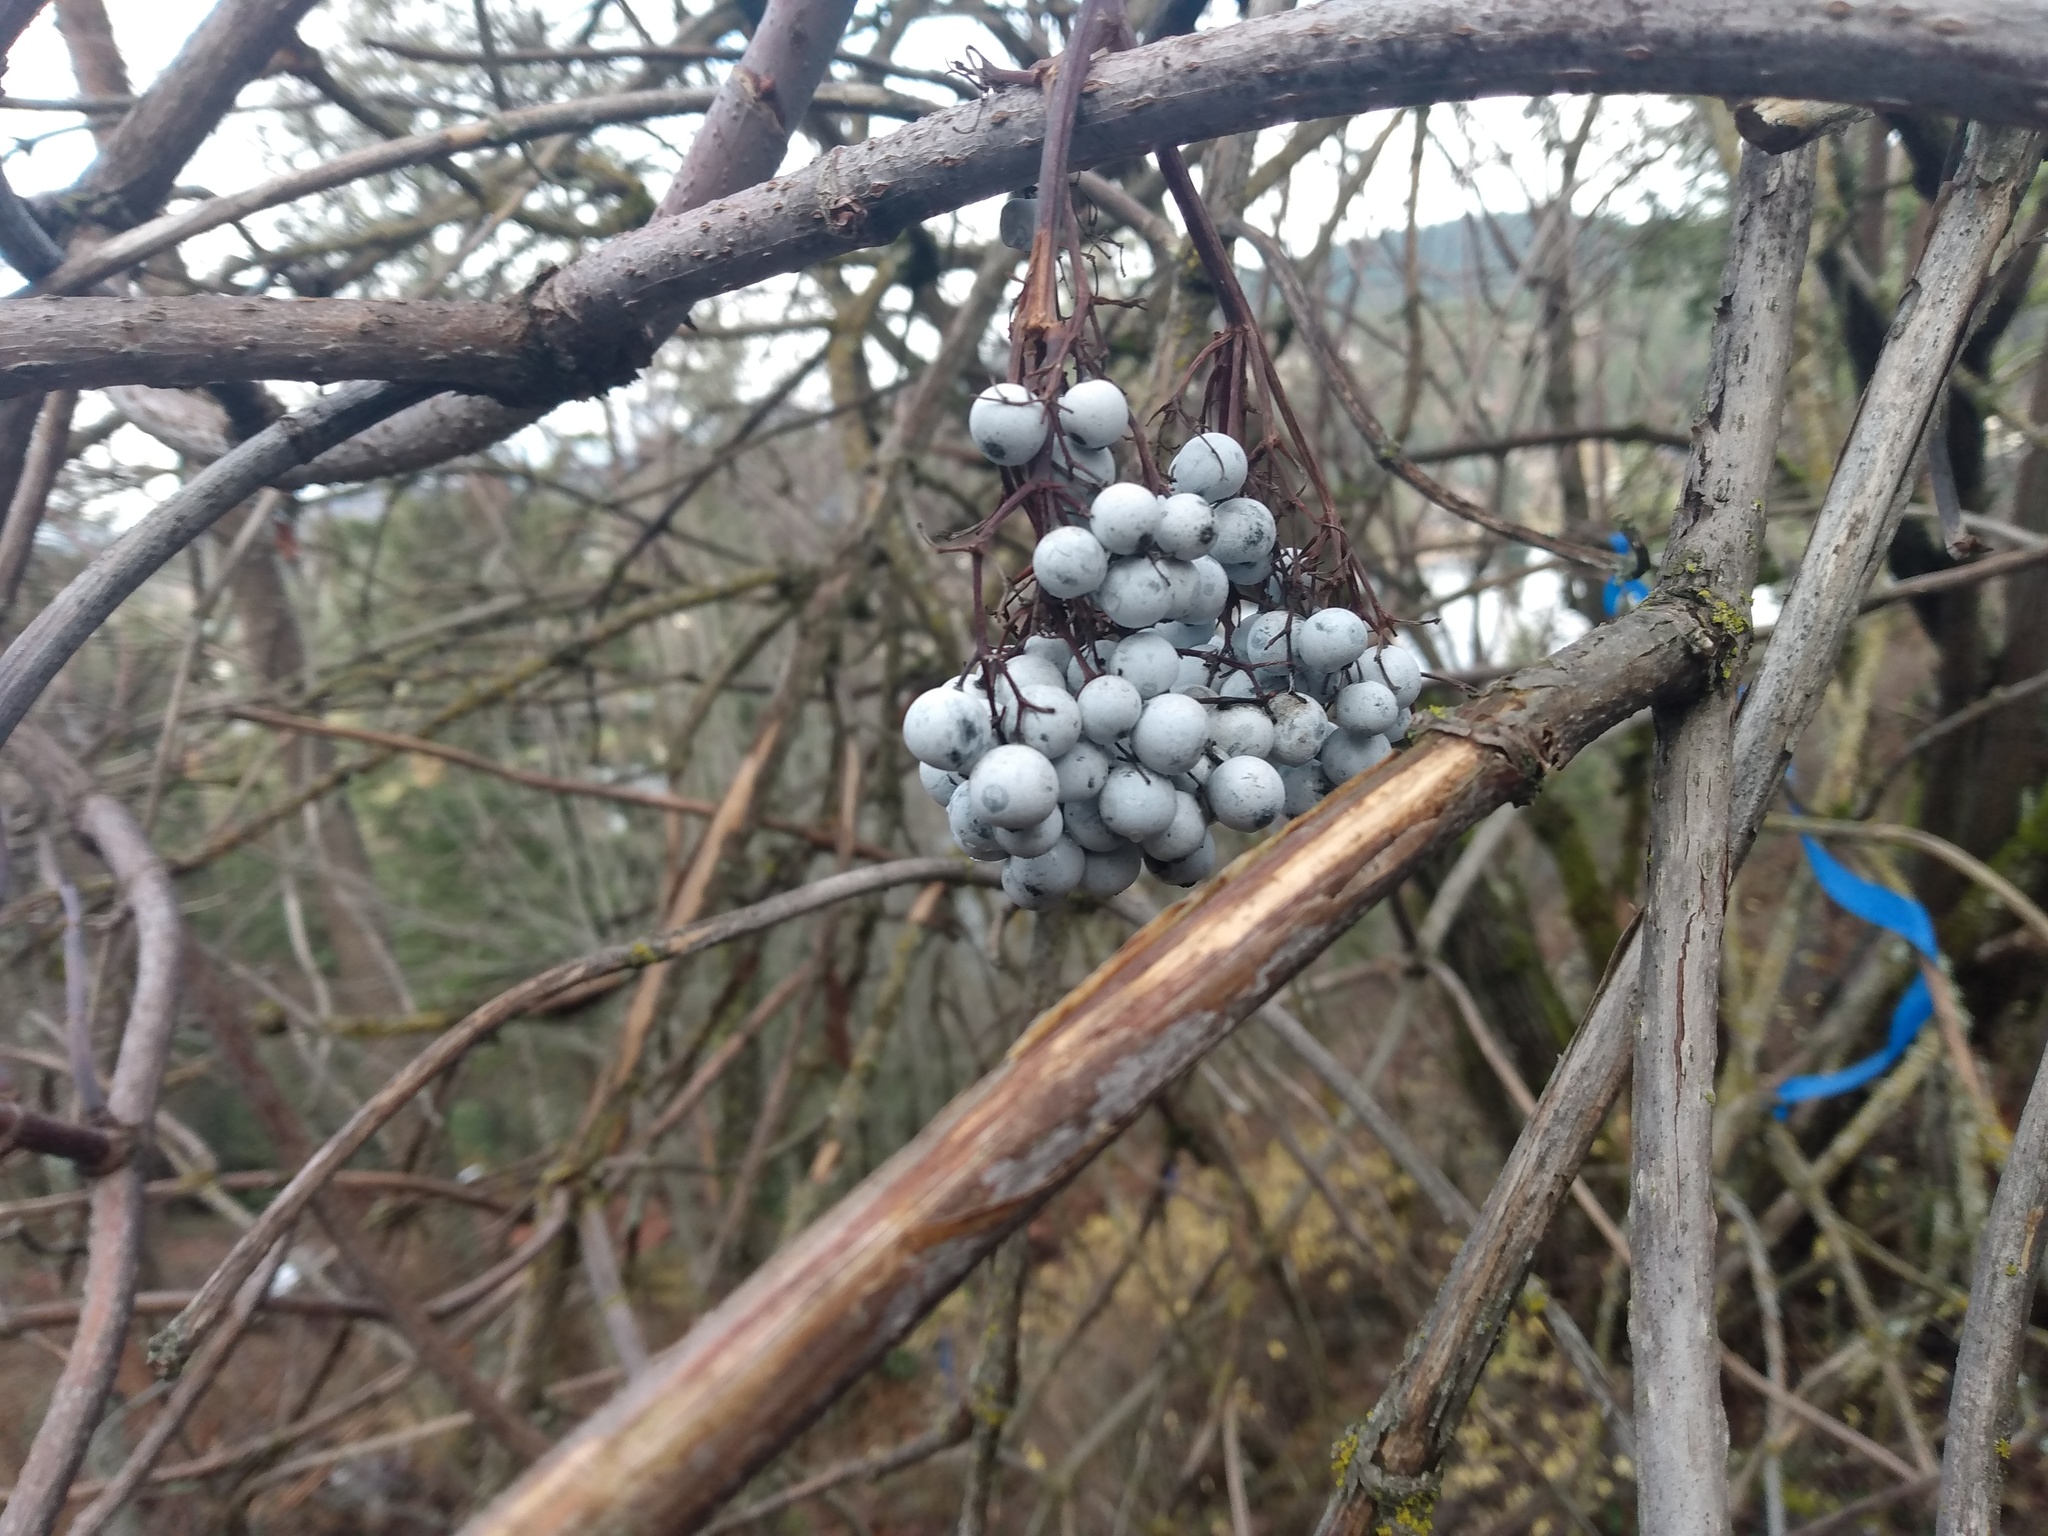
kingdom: Plantae
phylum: Tracheophyta
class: Magnoliopsida
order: Dipsacales
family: Viburnaceae
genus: Sambucus
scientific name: Sambucus cerulea
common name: Blue elder
